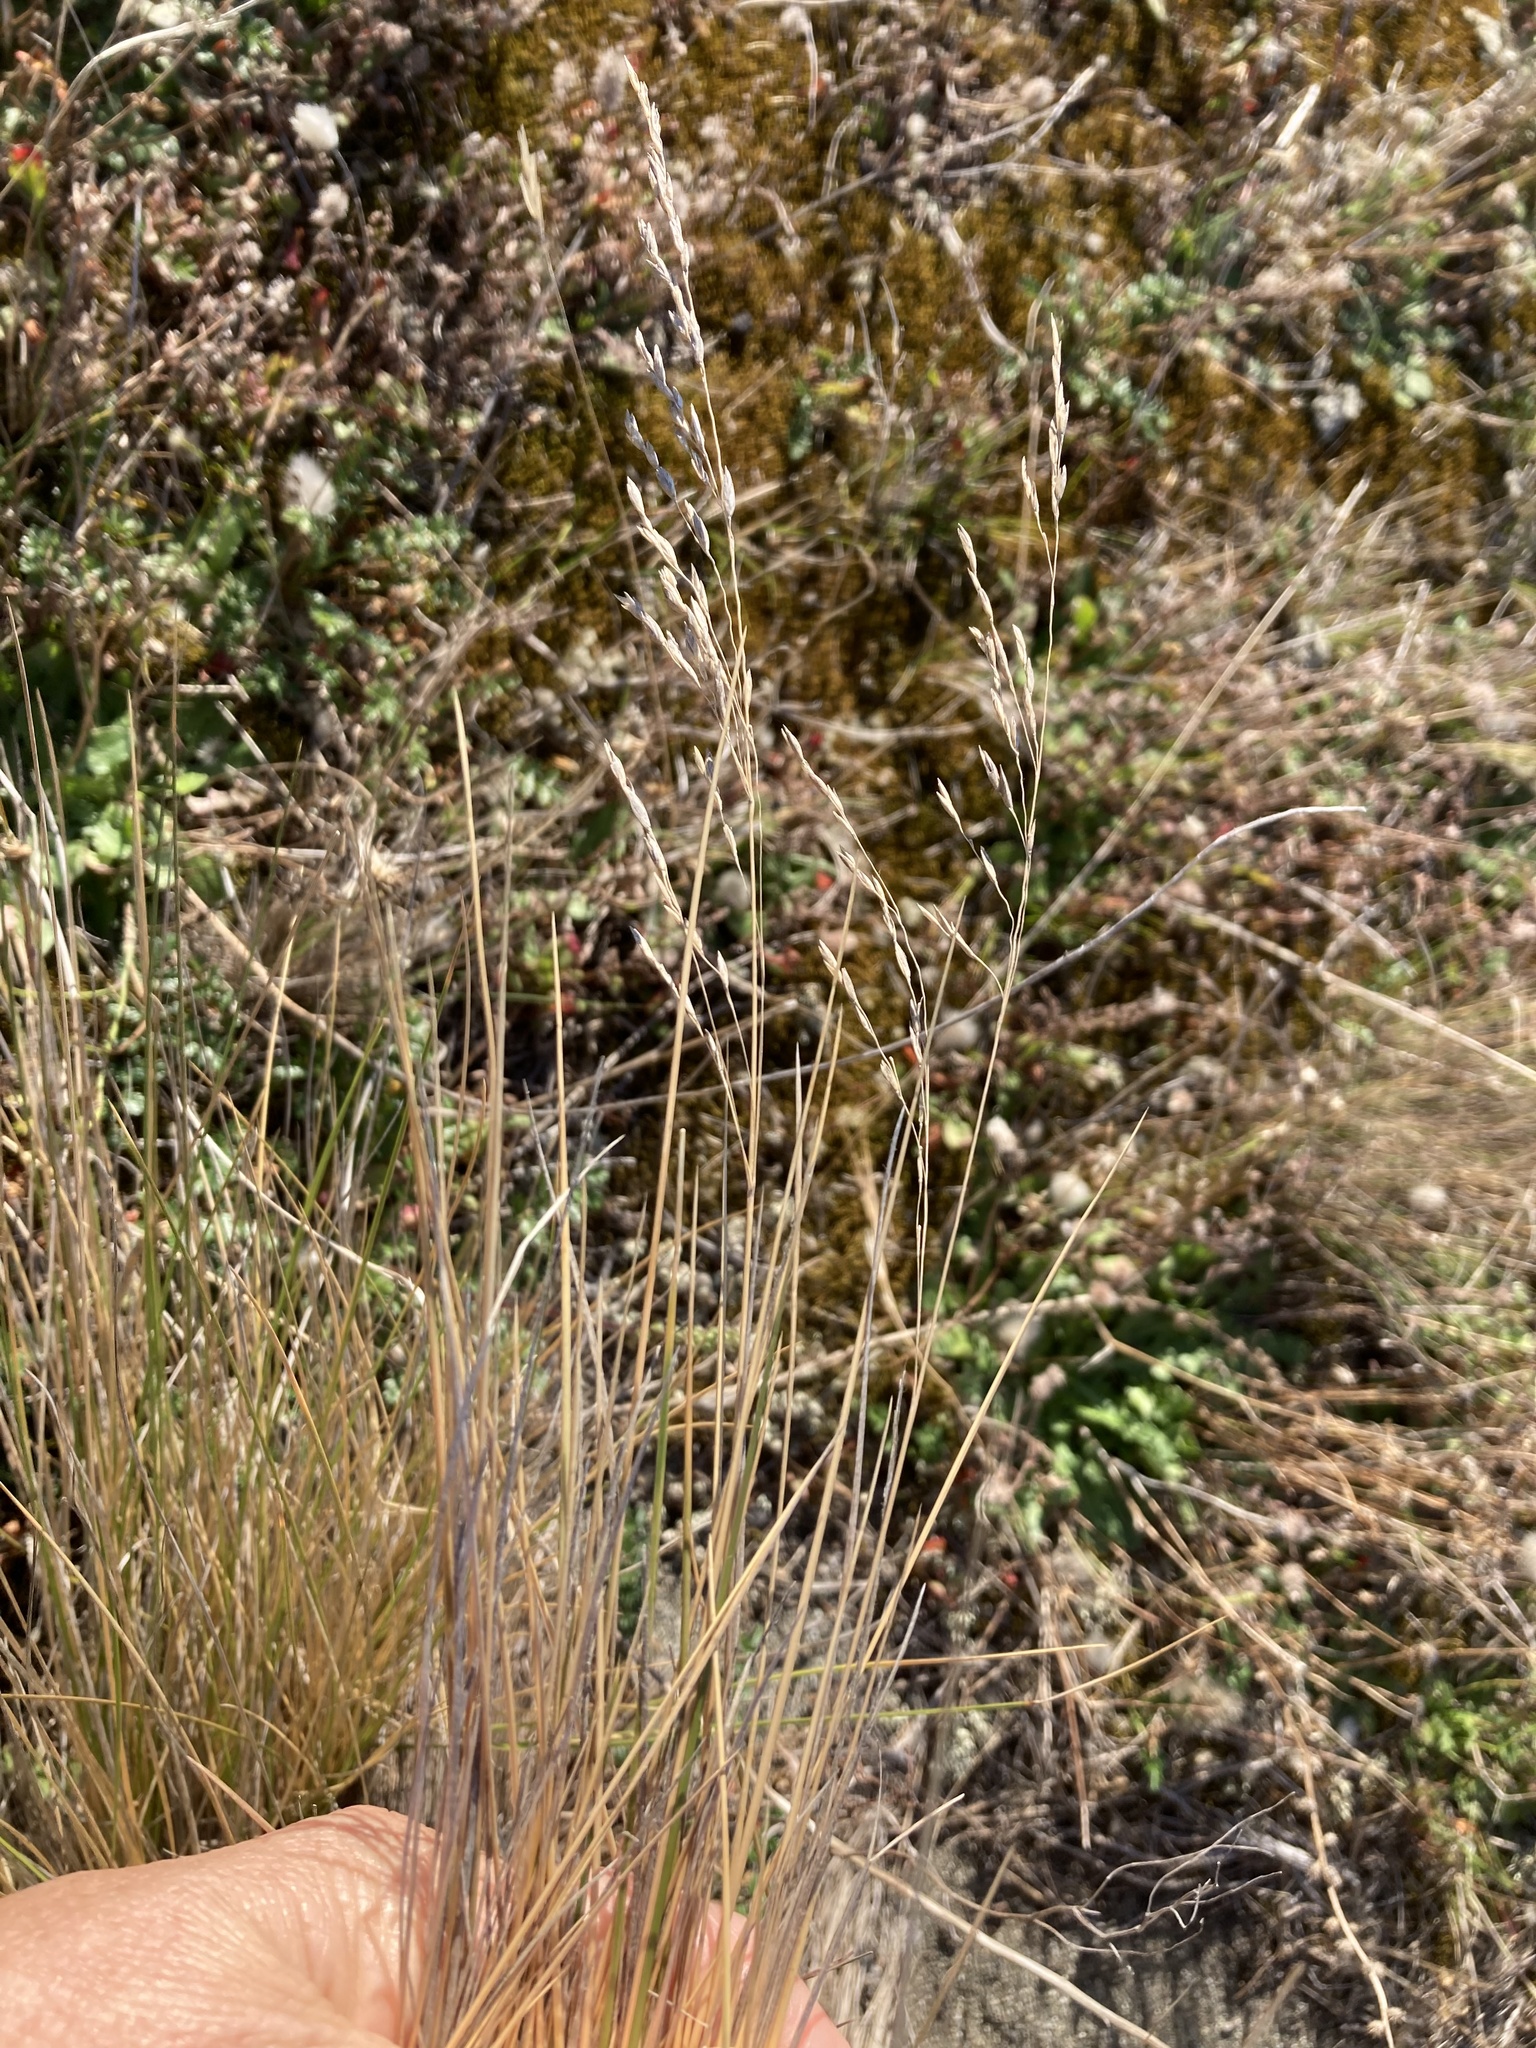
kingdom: Plantae
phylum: Tracheophyta
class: Liliopsida
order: Poales
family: Poaceae
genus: Poa
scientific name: Poa cita
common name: Silver tussock
